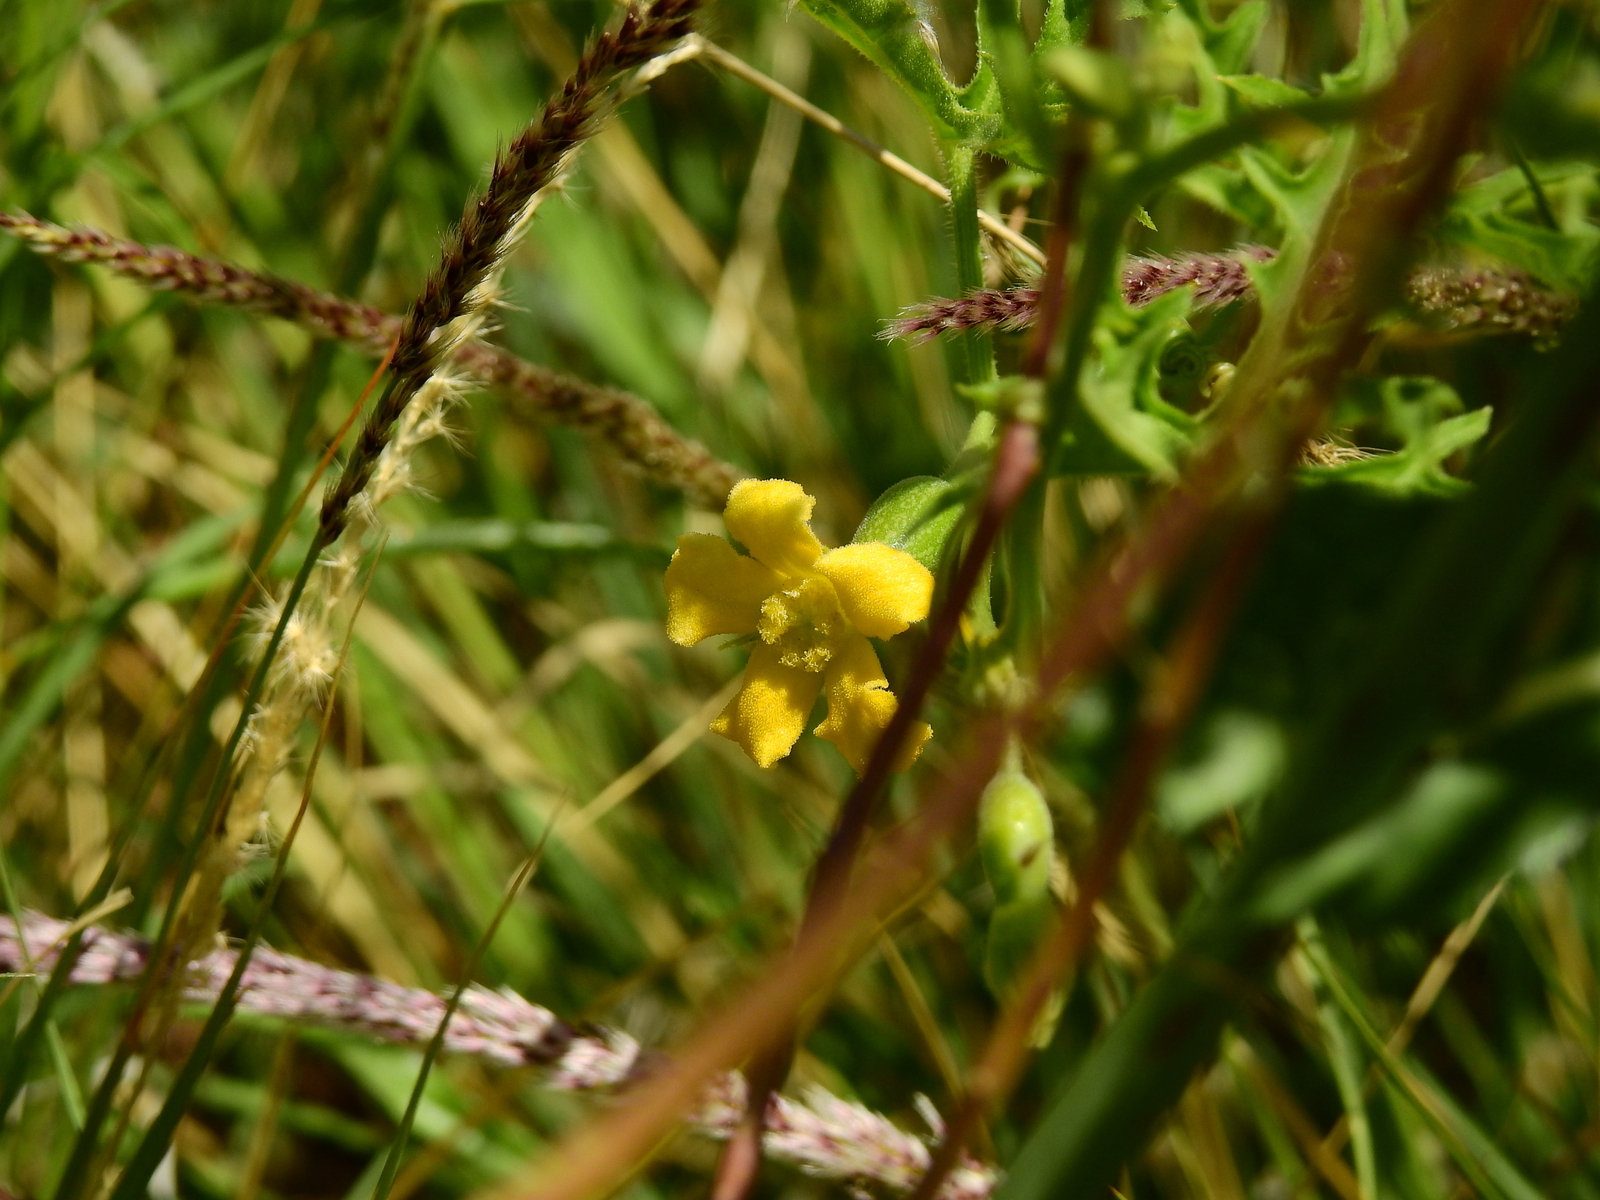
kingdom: Plantae
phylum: Tracheophyta
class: Magnoliopsida
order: Cucurbitales
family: Cucurbitaceae
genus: Cucurbitella
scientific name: Cucurbitella asperata
